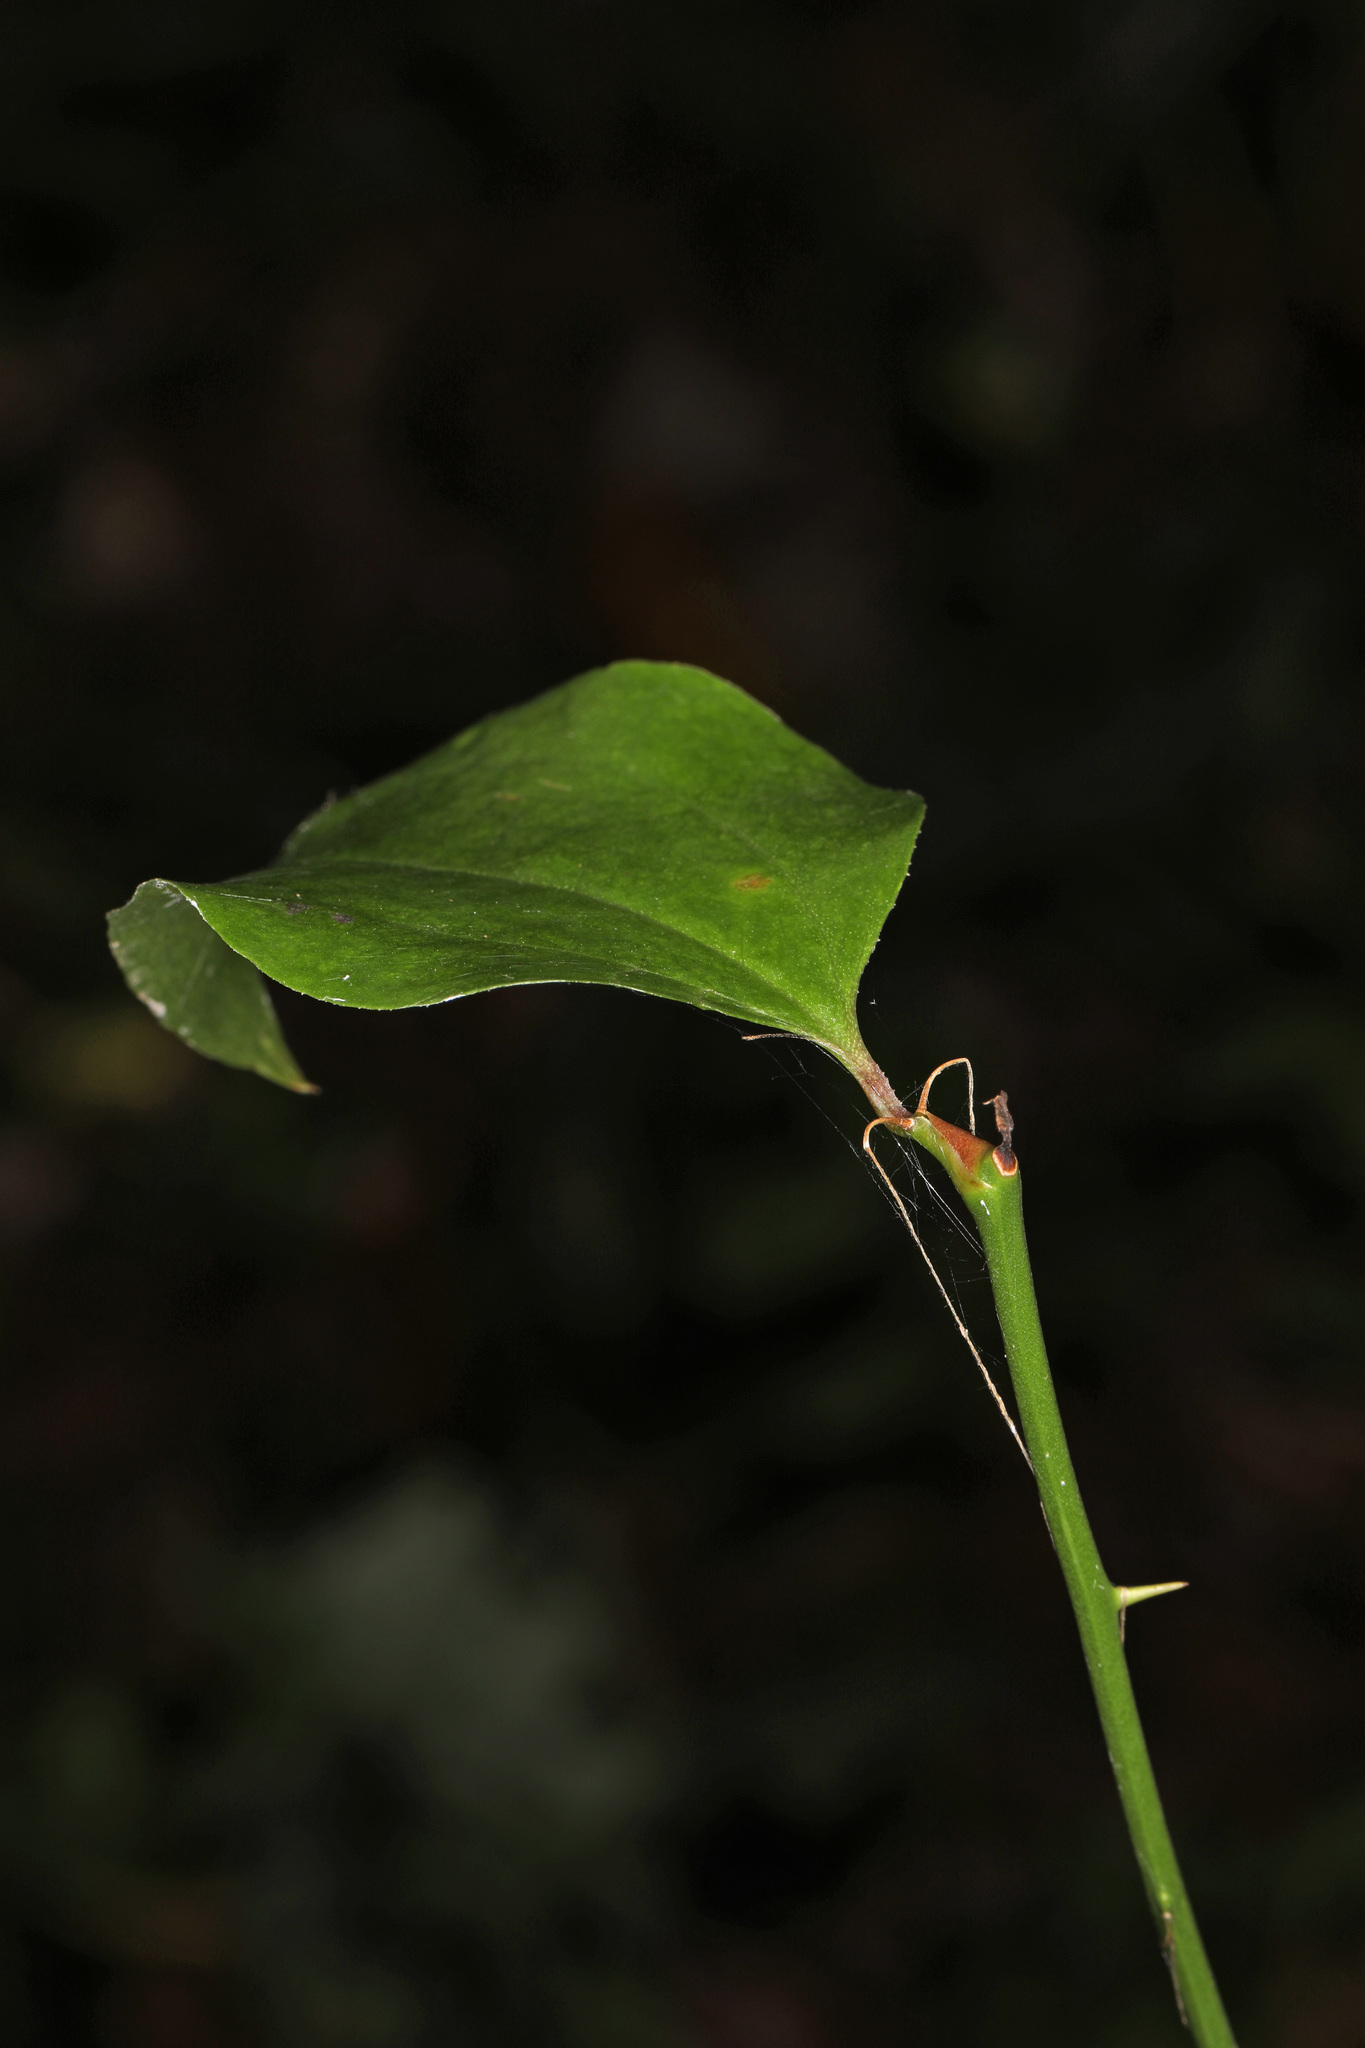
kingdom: Plantae
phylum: Tracheophyta
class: Liliopsida
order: Liliales
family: Smilacaceae
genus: Smilax
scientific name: Smilax rotundifolia
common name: Bullbriar
